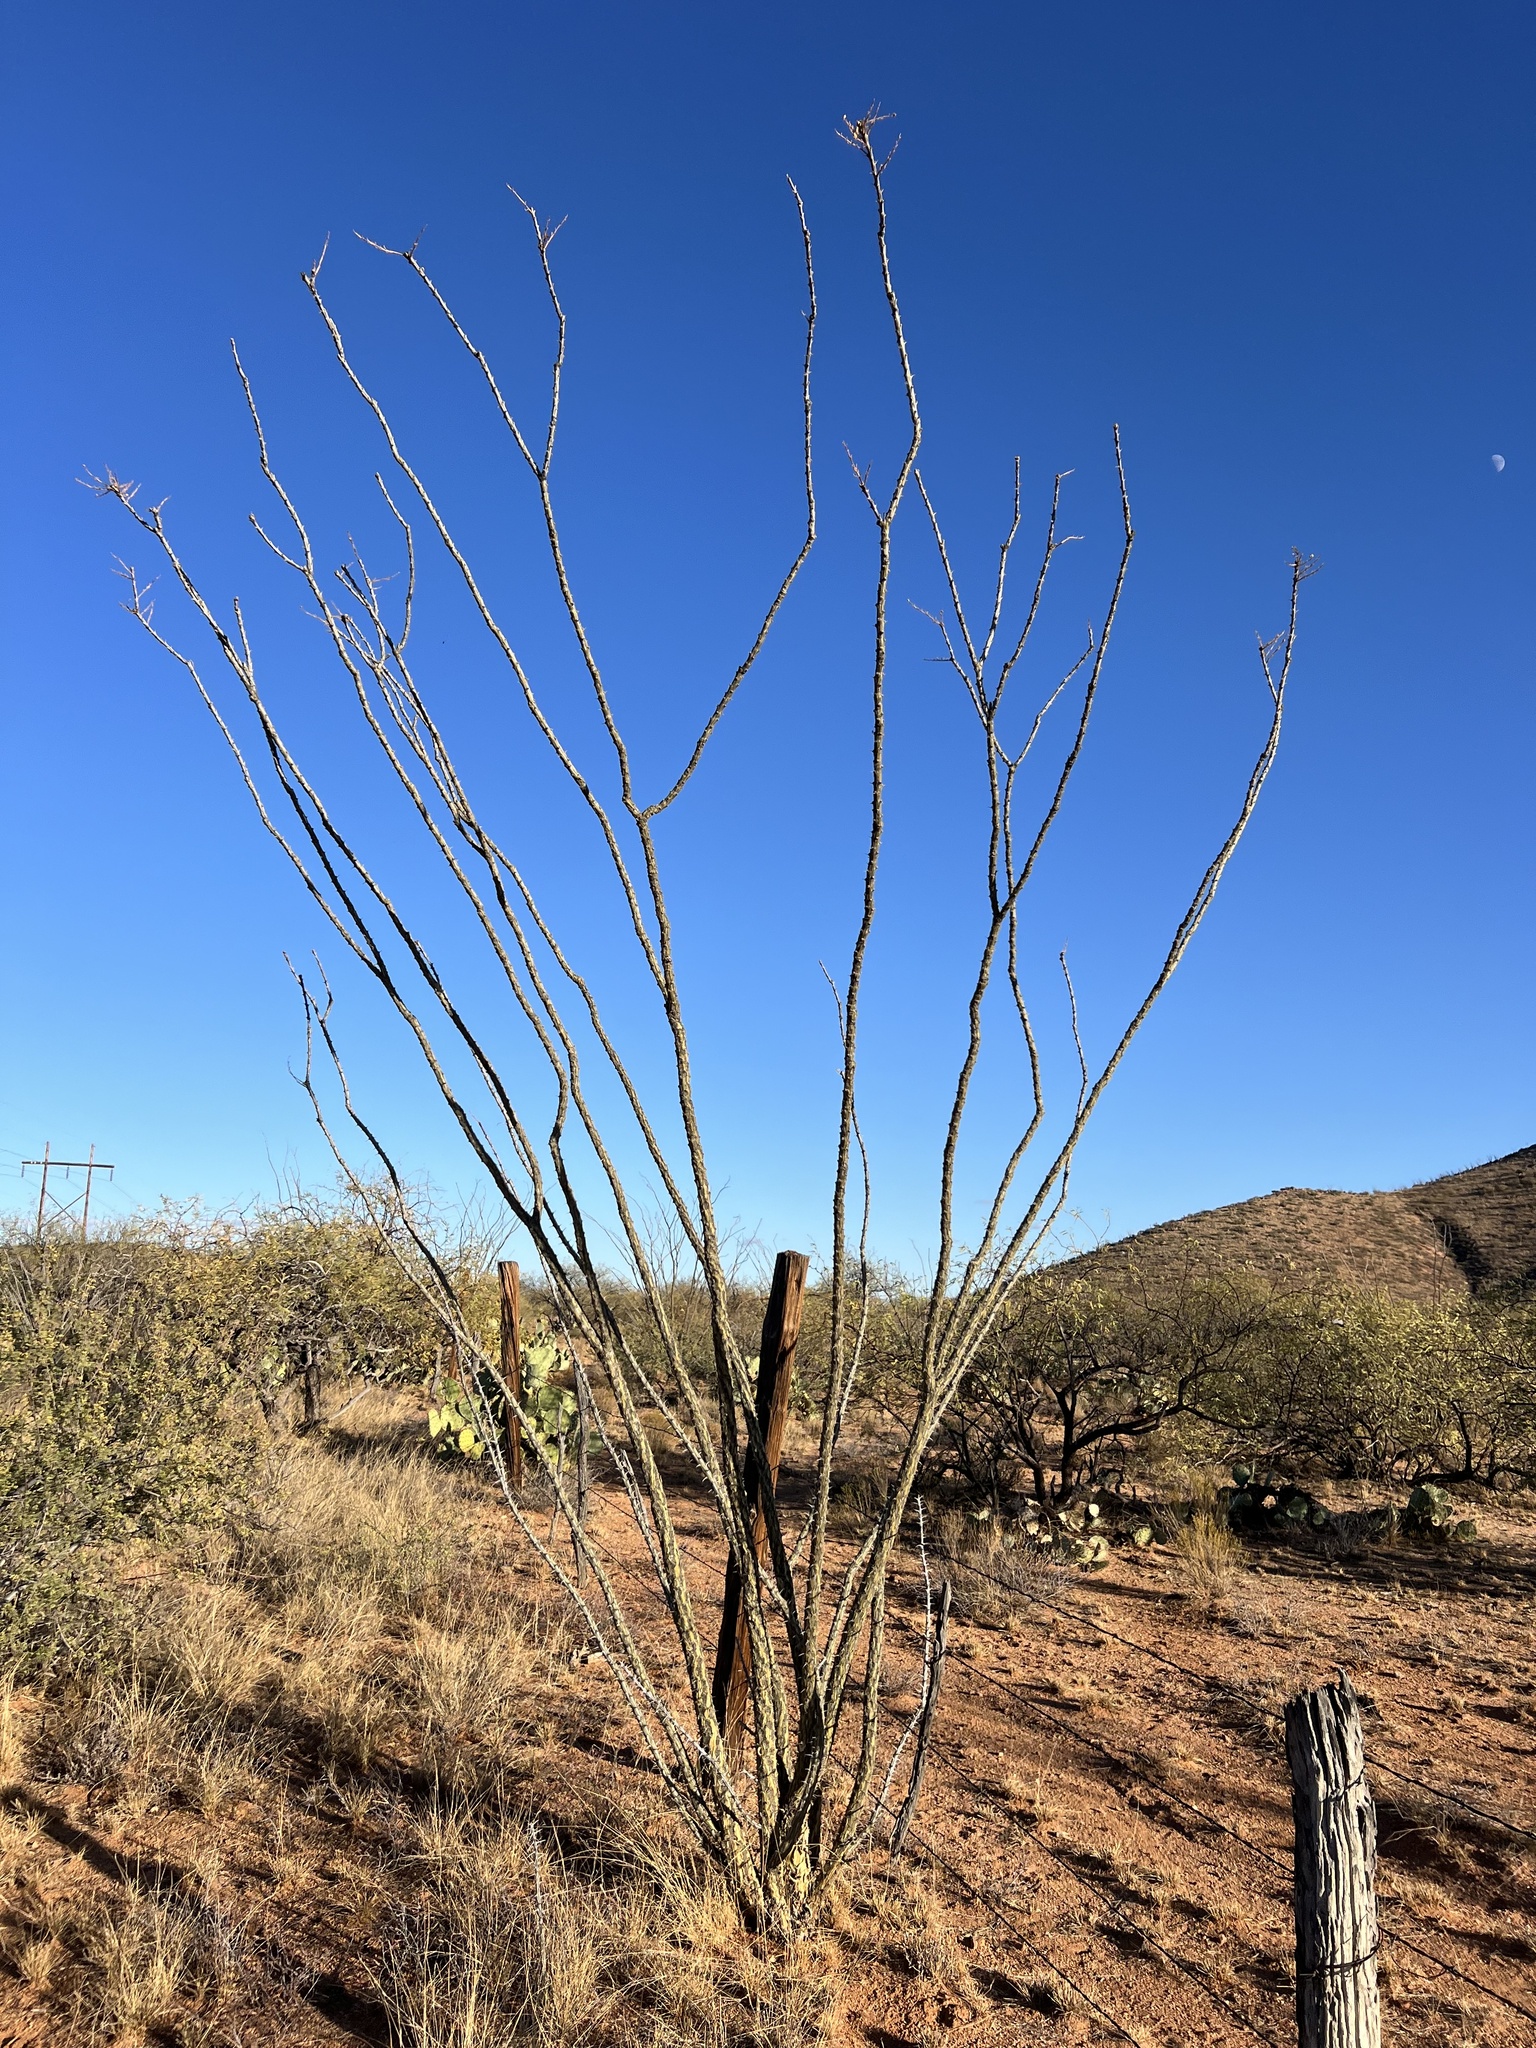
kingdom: Plantae
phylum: Tracheophyta
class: Magnoliopsida
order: Ericales
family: Fouquieriaceae
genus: Fouquieria
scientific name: Fouquieria splendens
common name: Vine-cactus
